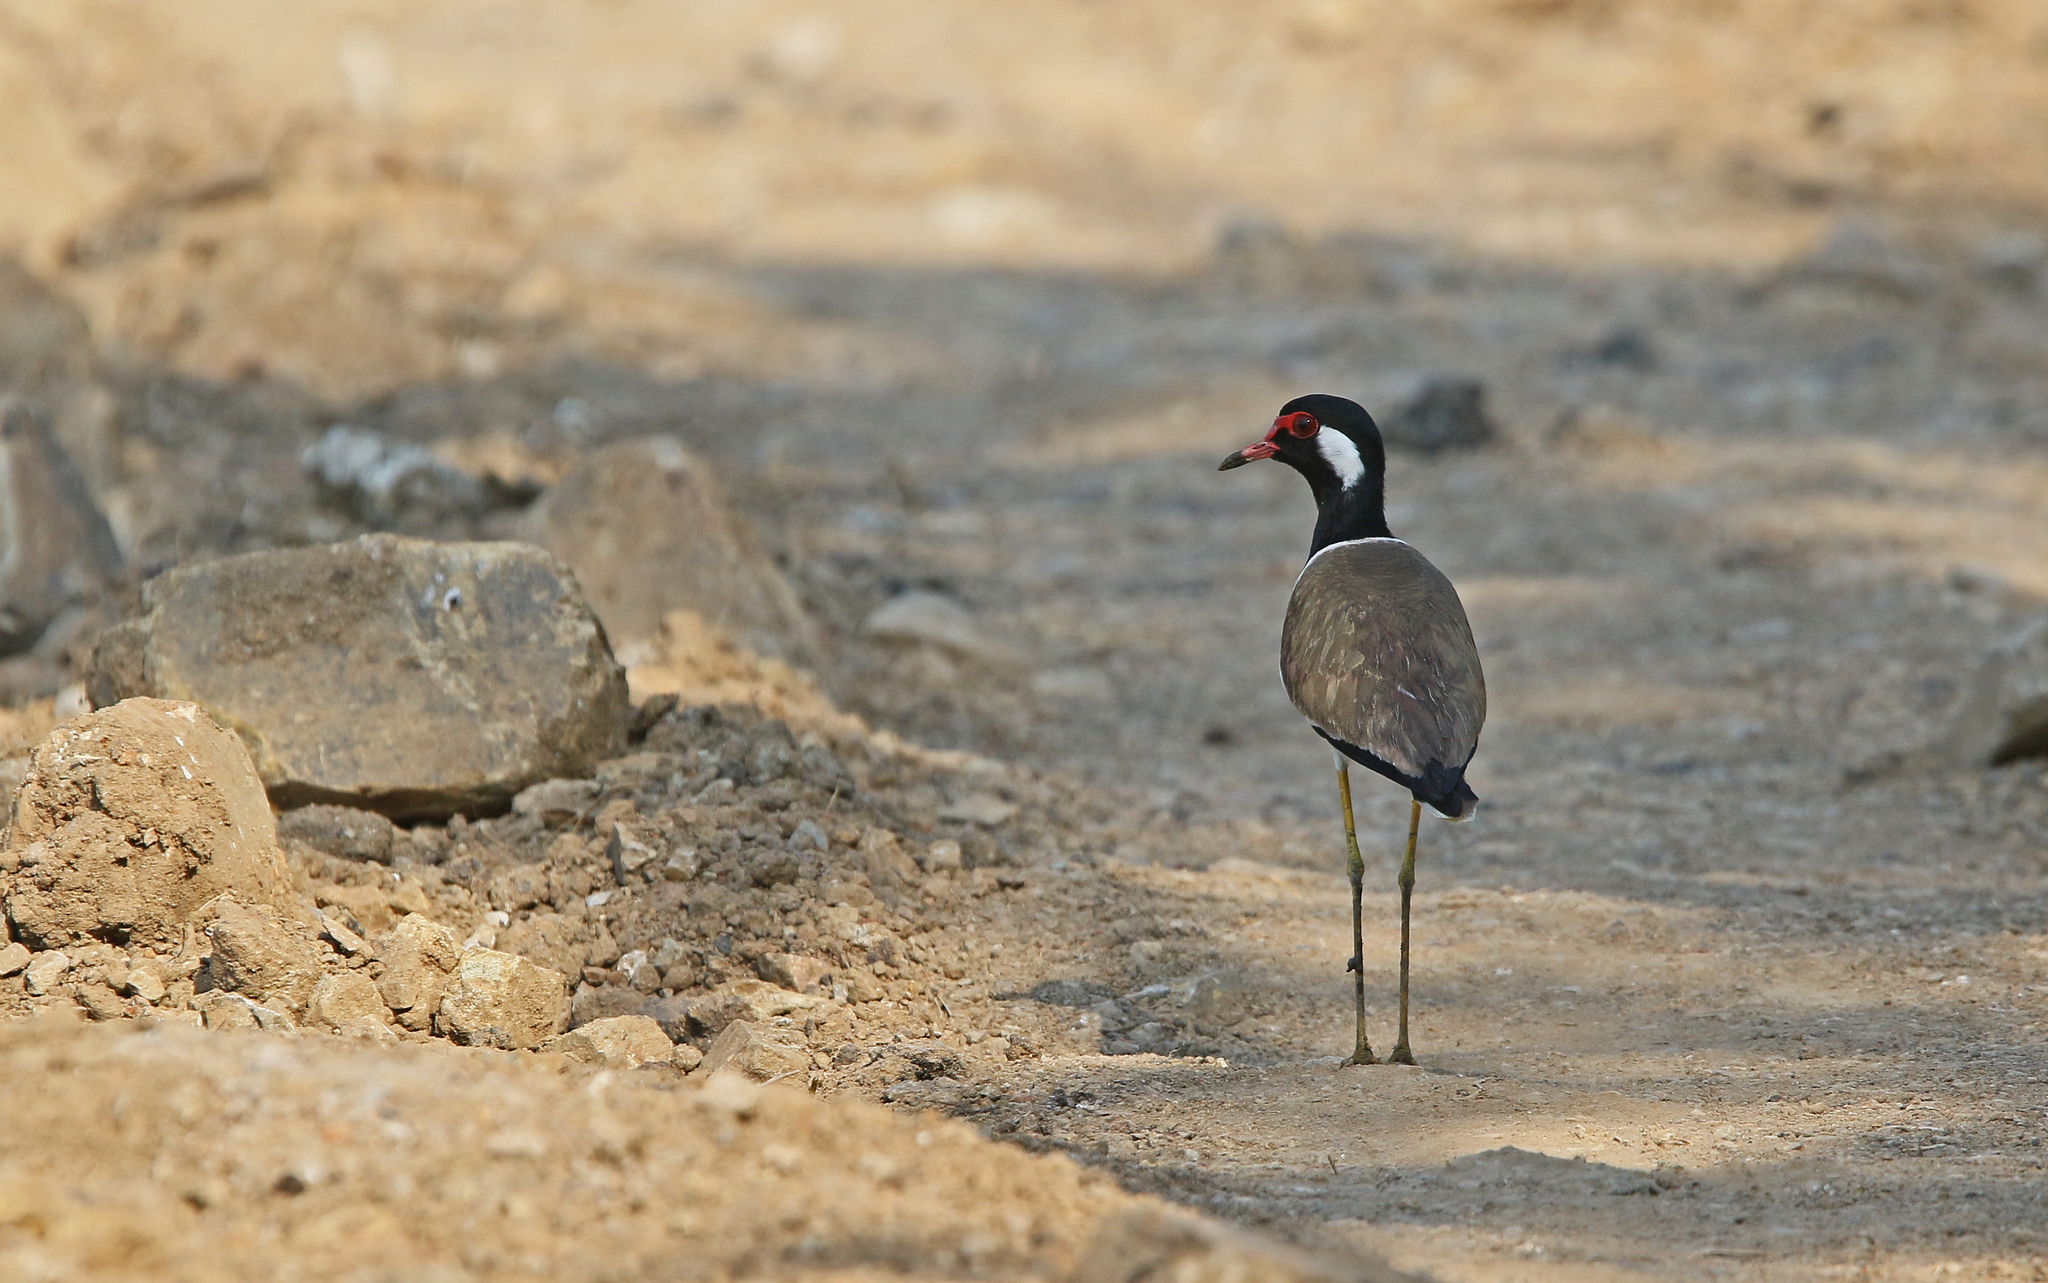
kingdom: Animalia
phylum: Chordata
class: Aves
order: Charadriiformes
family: Charadriidae
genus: Vanellus
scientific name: Vanellus indicus
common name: Red-wattled lapwing
